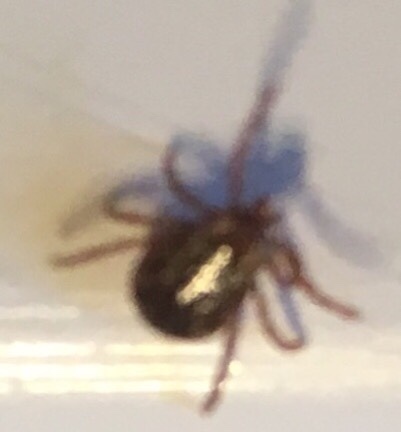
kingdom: Animalia
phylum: Arthropoda
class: Arachnida
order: Ixodida
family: Ixodidae
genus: Dermacentor
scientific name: Dermacentor variabilis
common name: American dog tick
